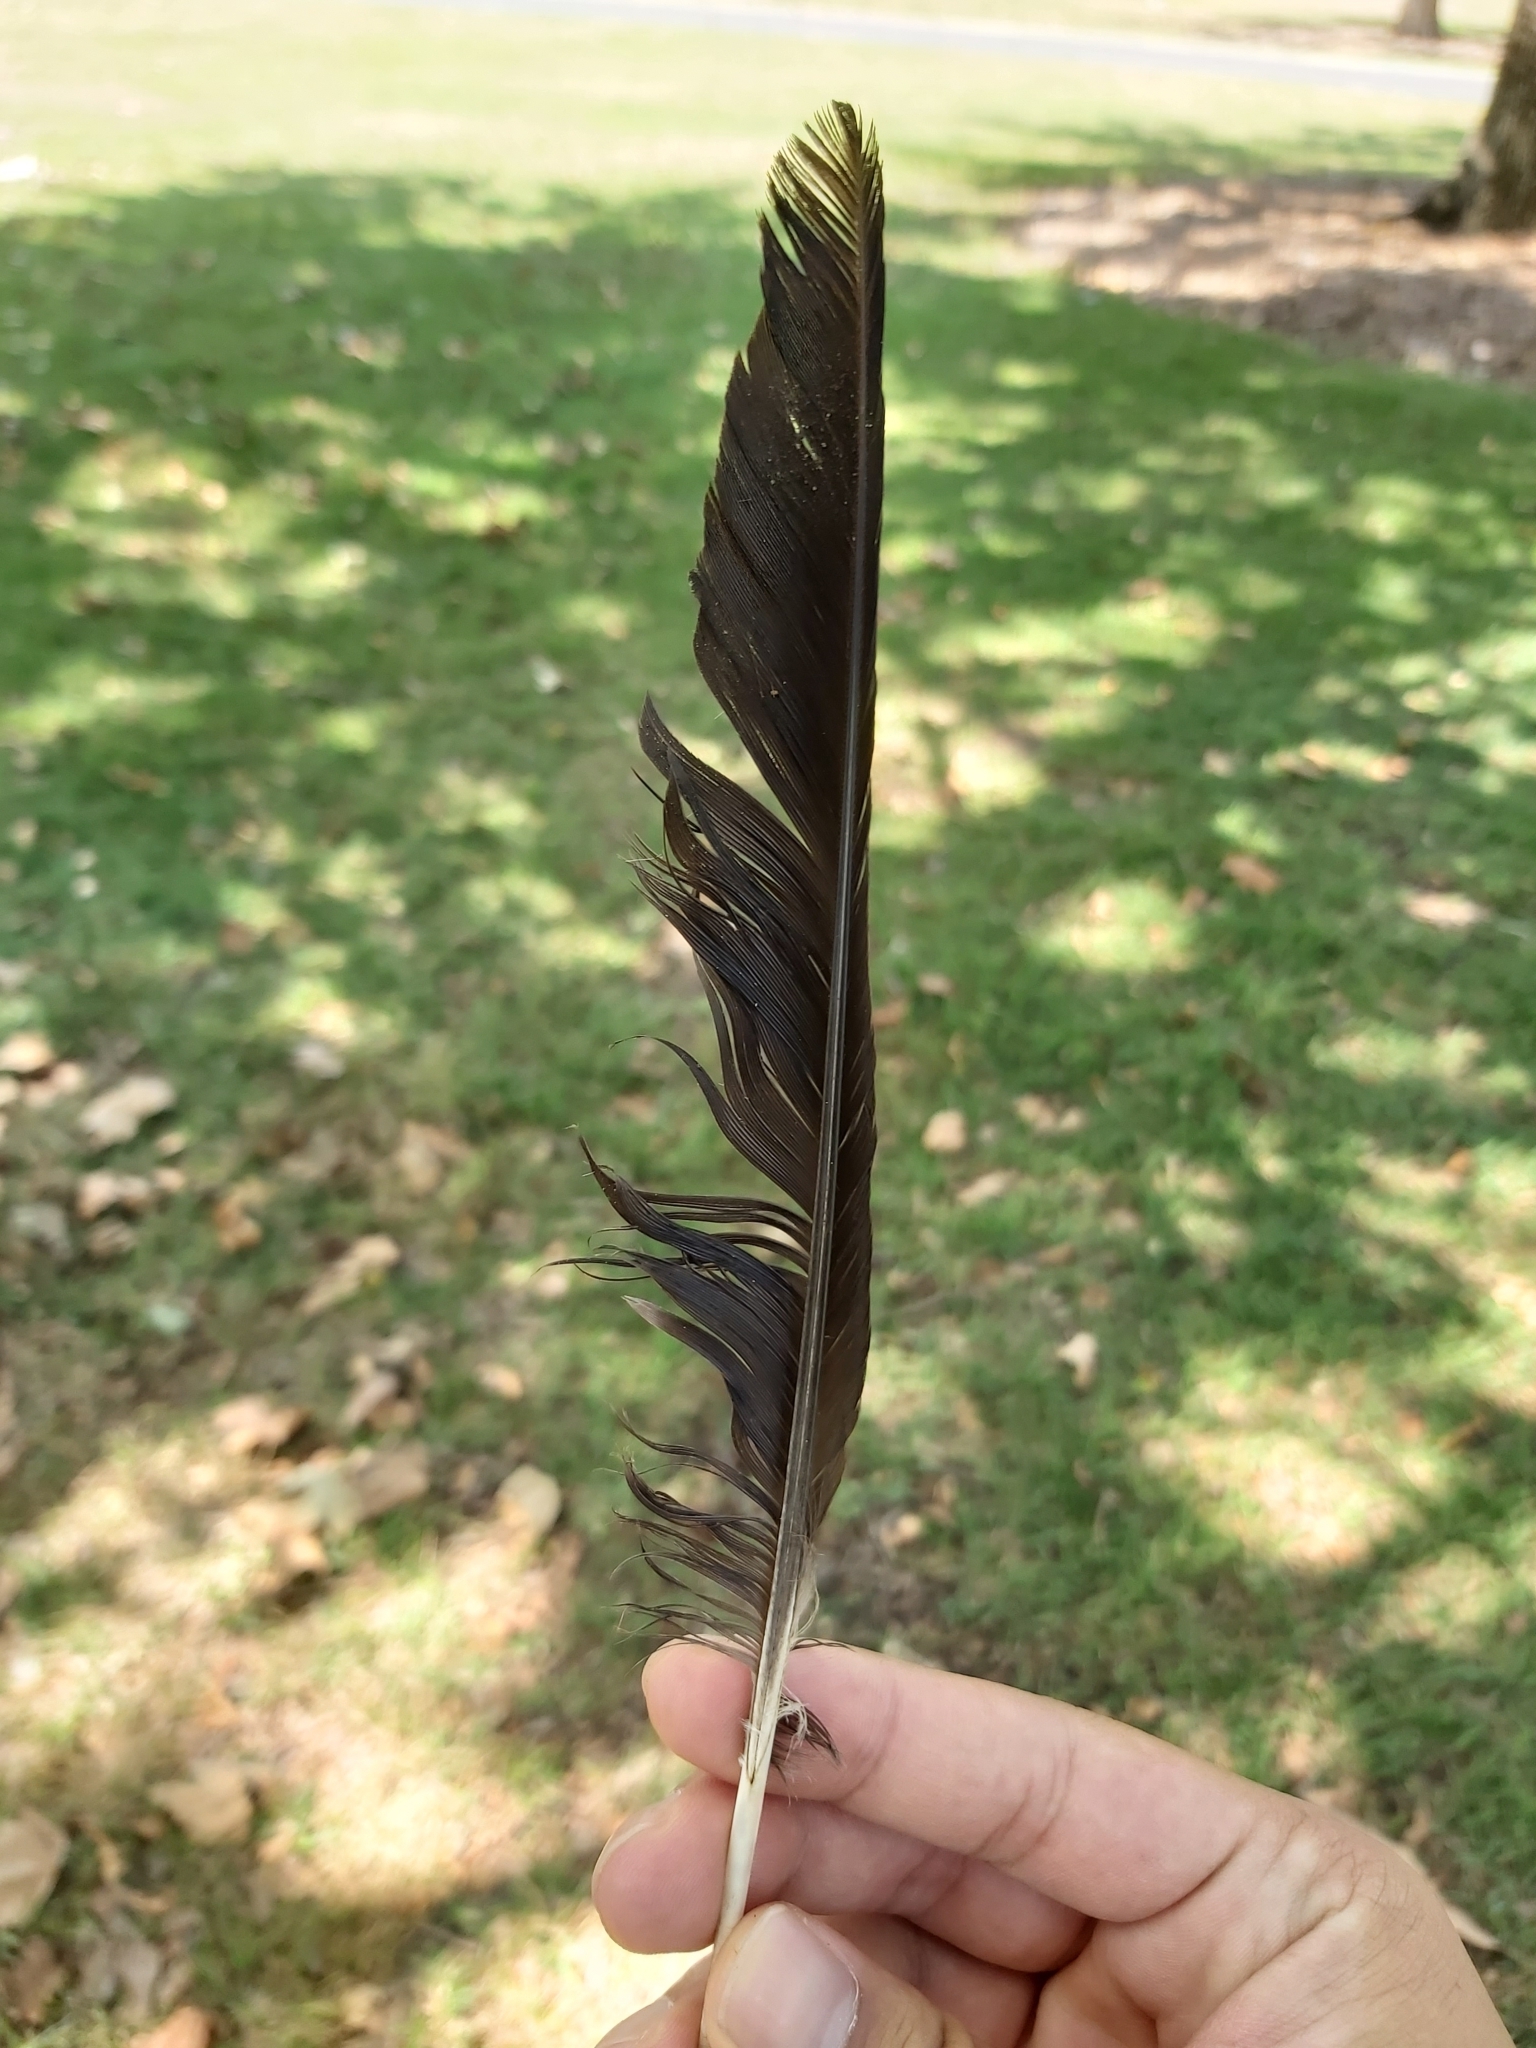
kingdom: Animalia
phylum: Chordata
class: Aves
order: Passeriformes
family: Cracticidae
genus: Gymnorhina
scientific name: Gymnorhina tibicen
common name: Australian magpie
